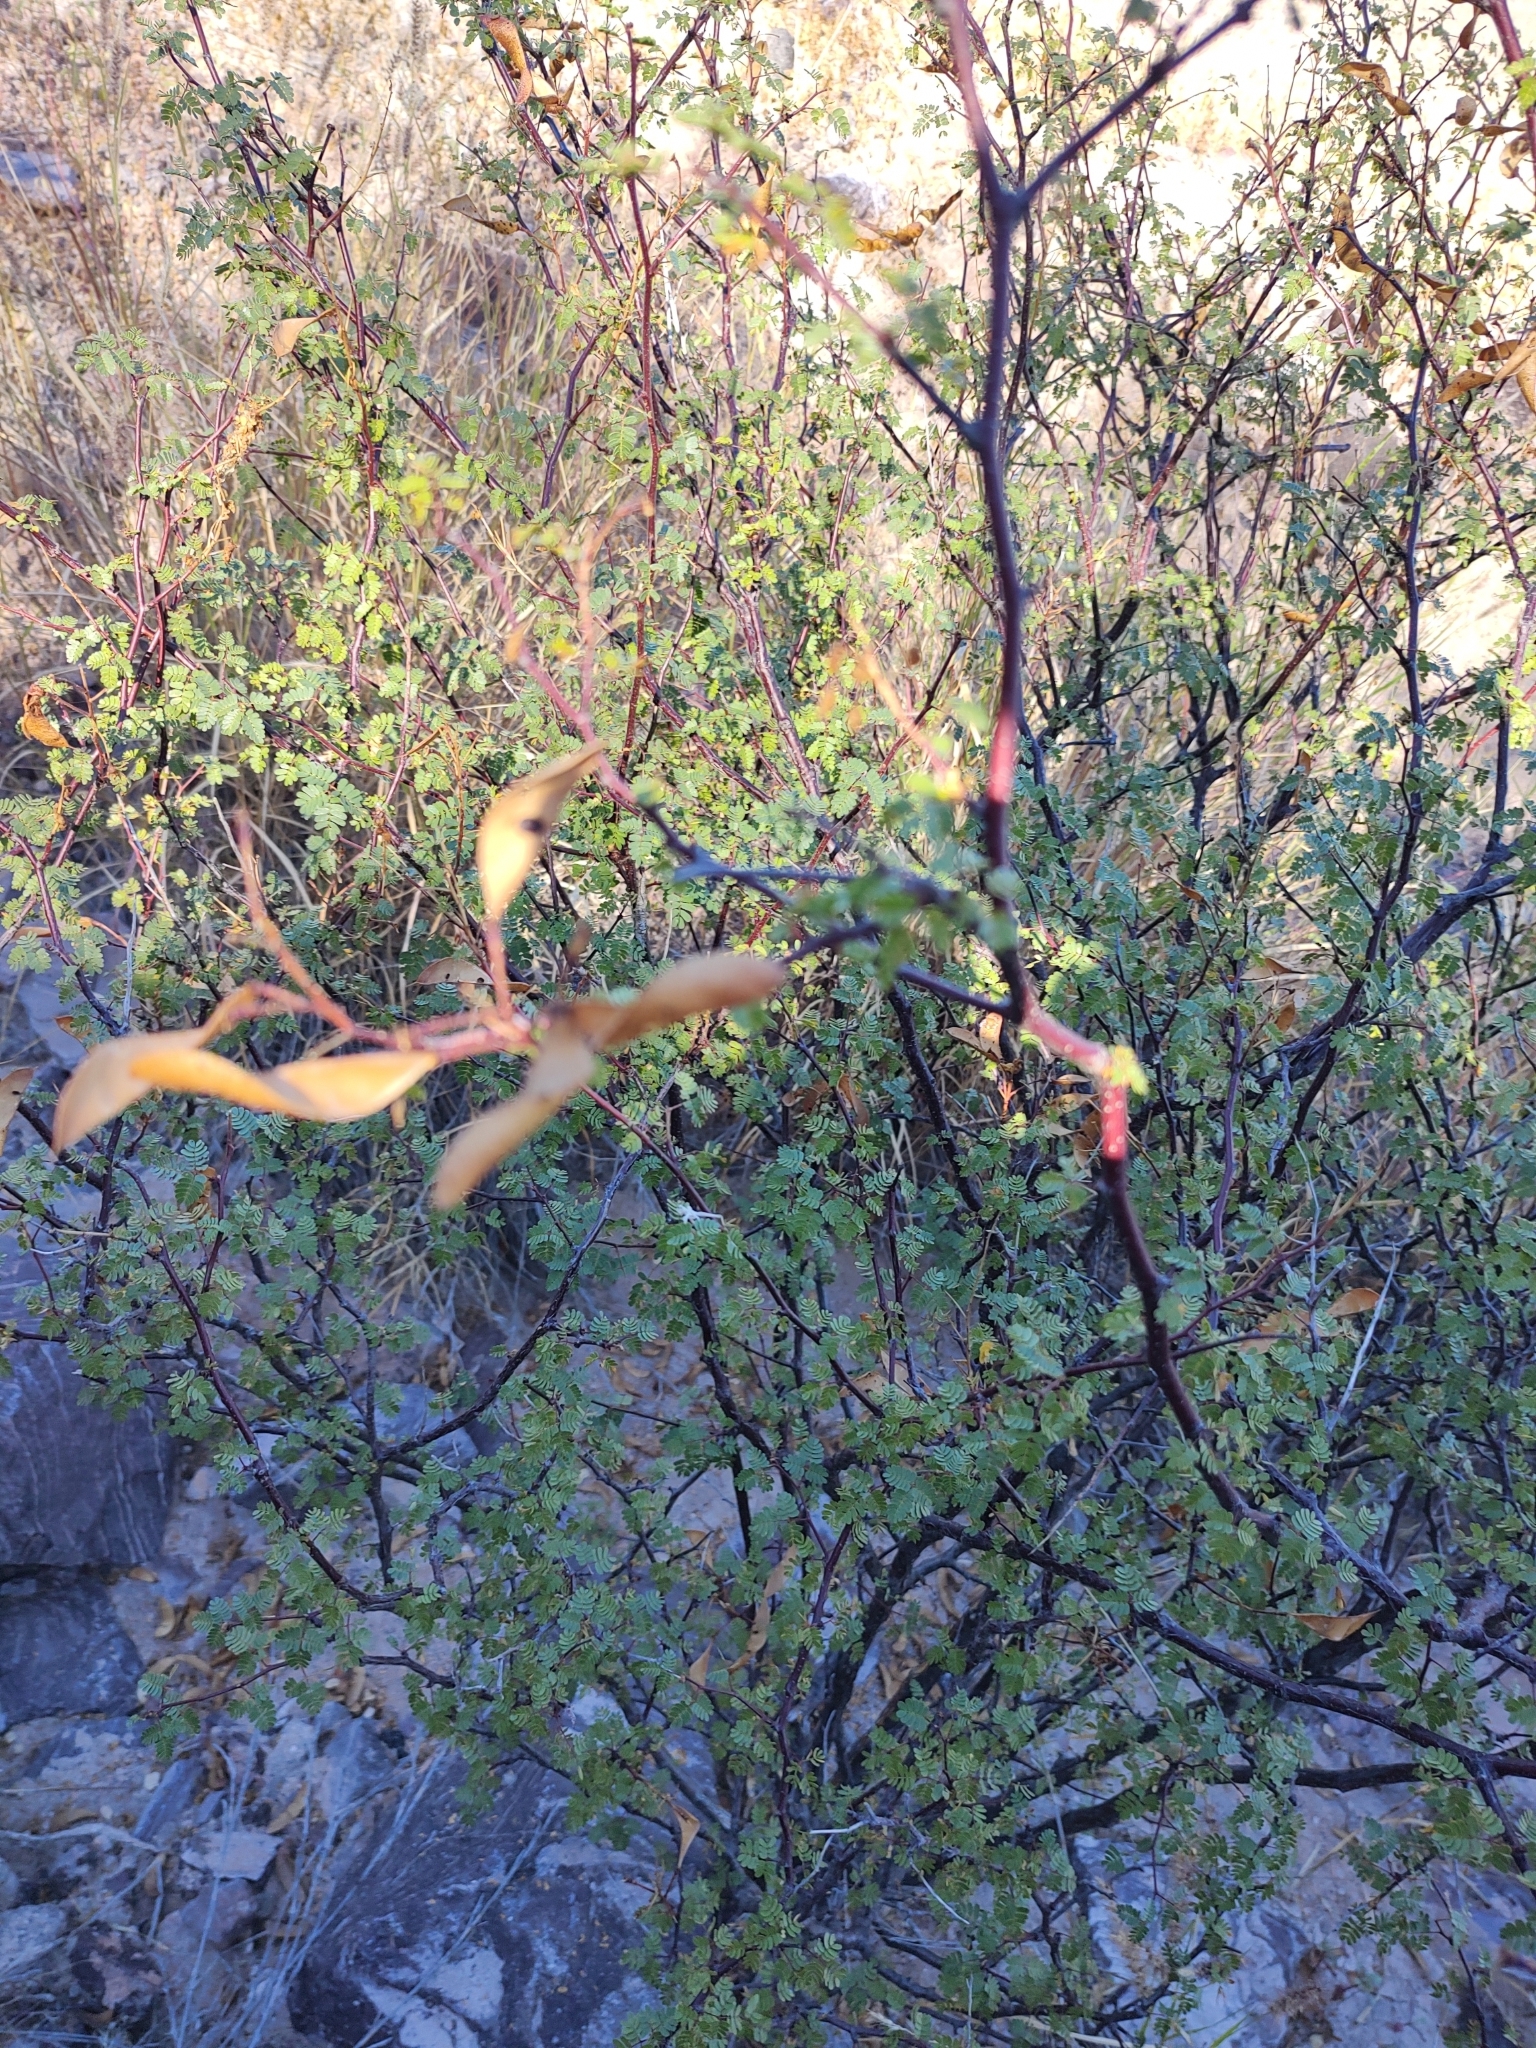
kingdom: Plantae
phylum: Tracheophyta
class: Magnoliopsida
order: Fabales
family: Fabaceae
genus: Erythrostemon
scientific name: Erythrostemon pannosus
